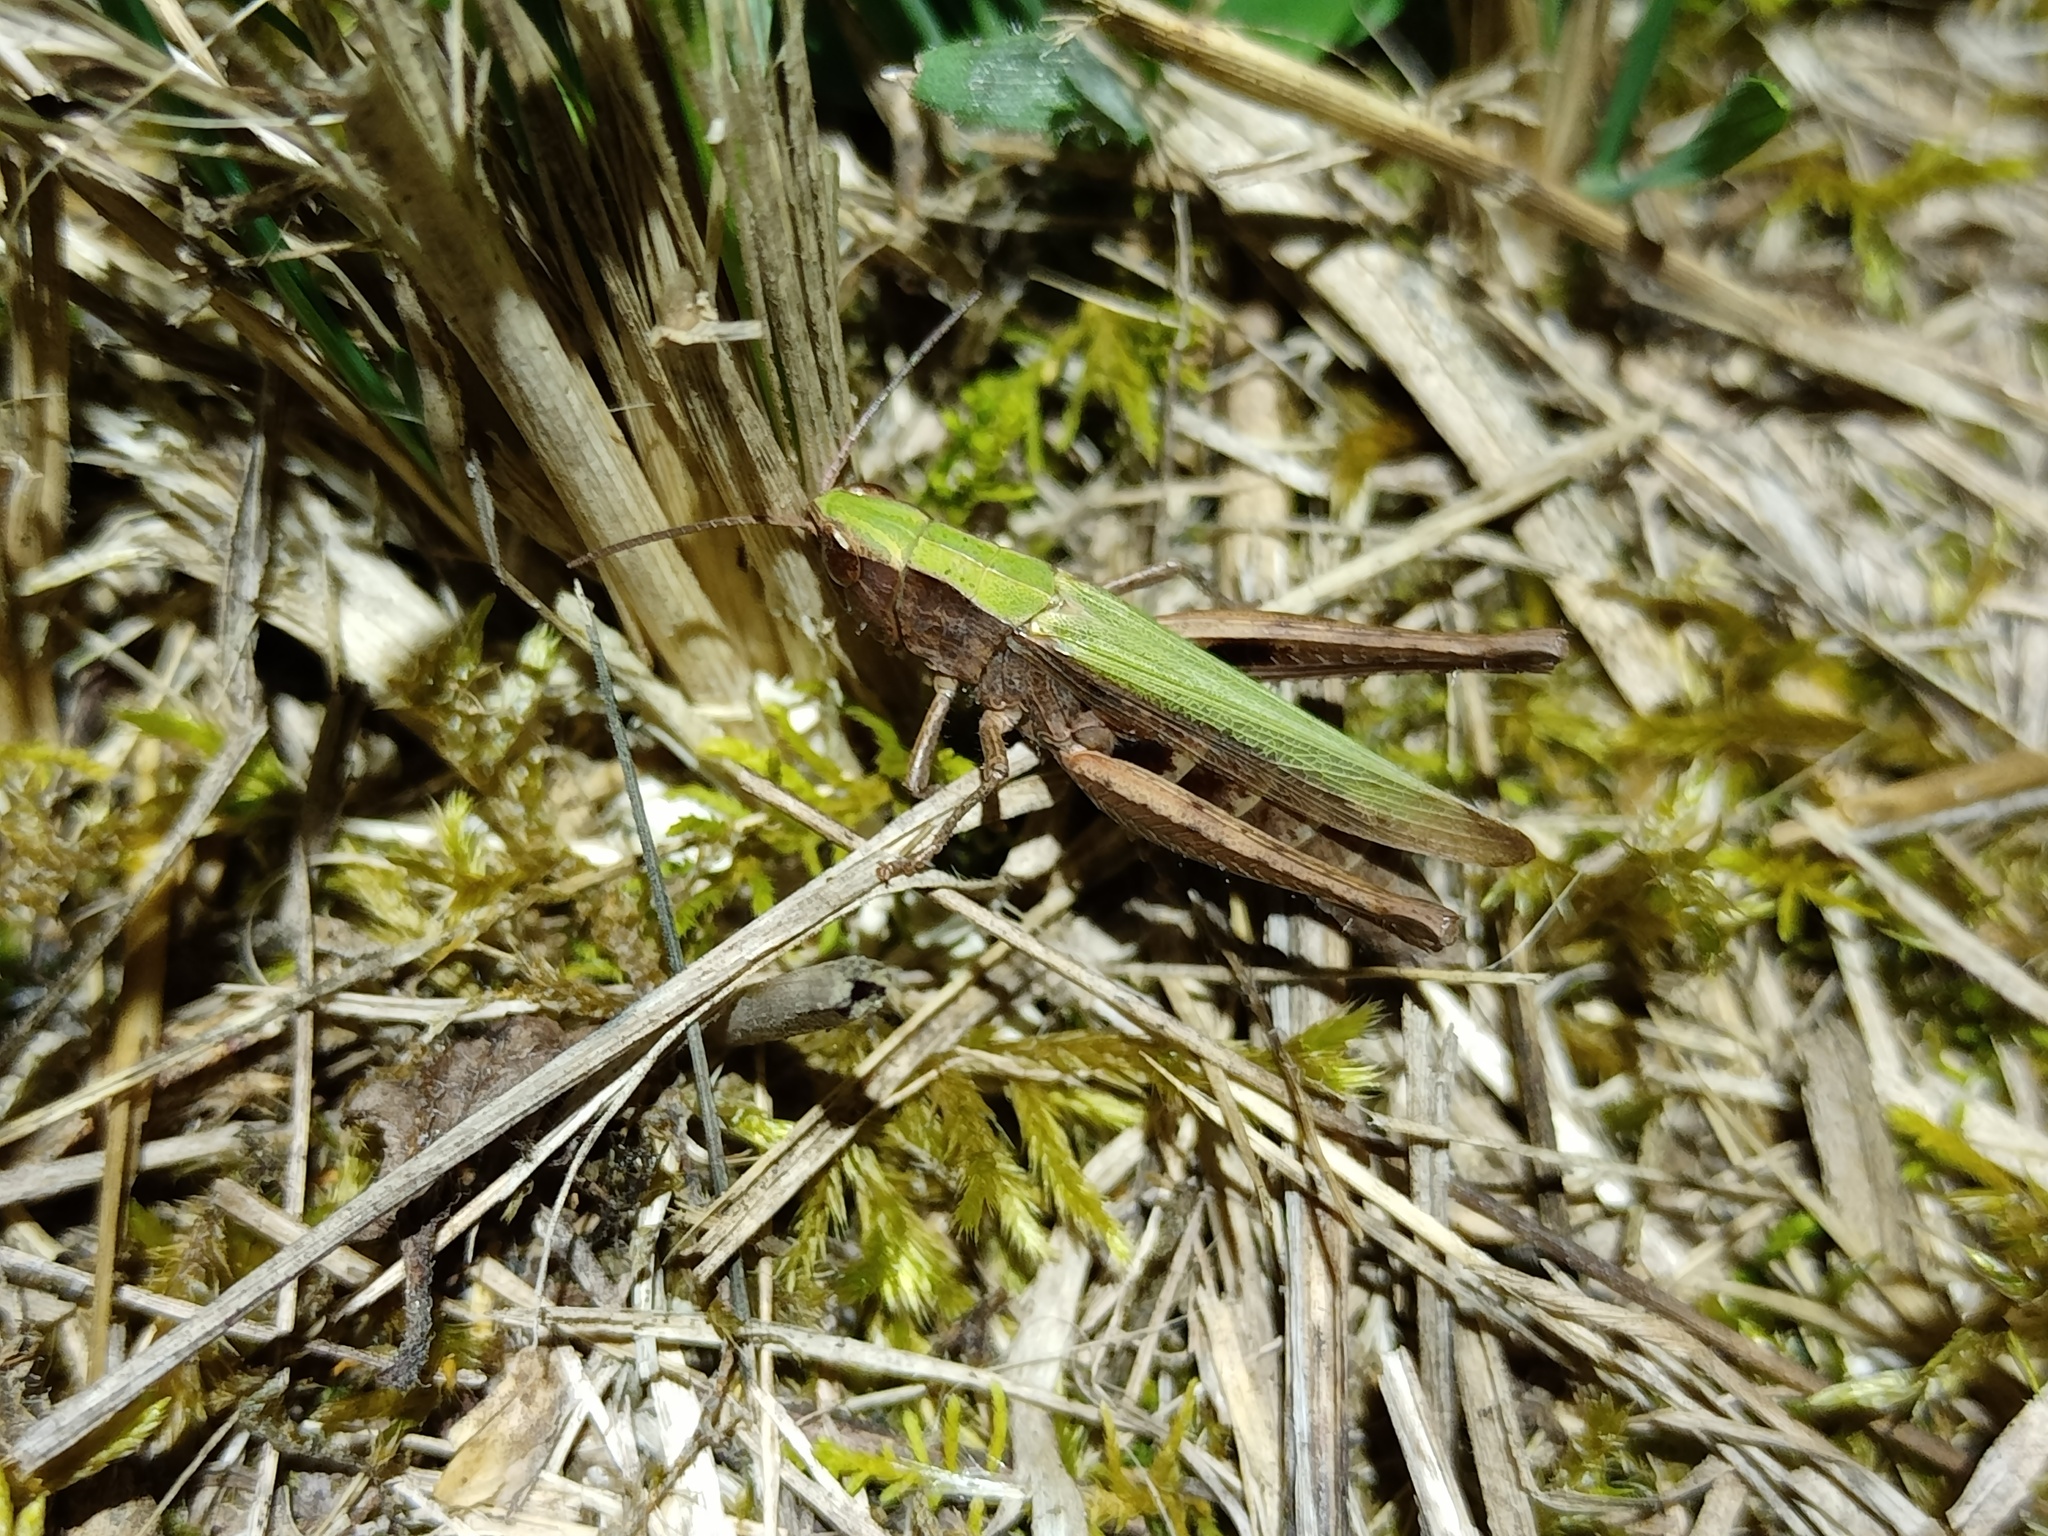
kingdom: Animalia
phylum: Arthropoda
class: Insecta
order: Orthoptera
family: Acrididae
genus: Chorthippus
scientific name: Chorthippus dorsatus
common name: Steppe grasshopper
